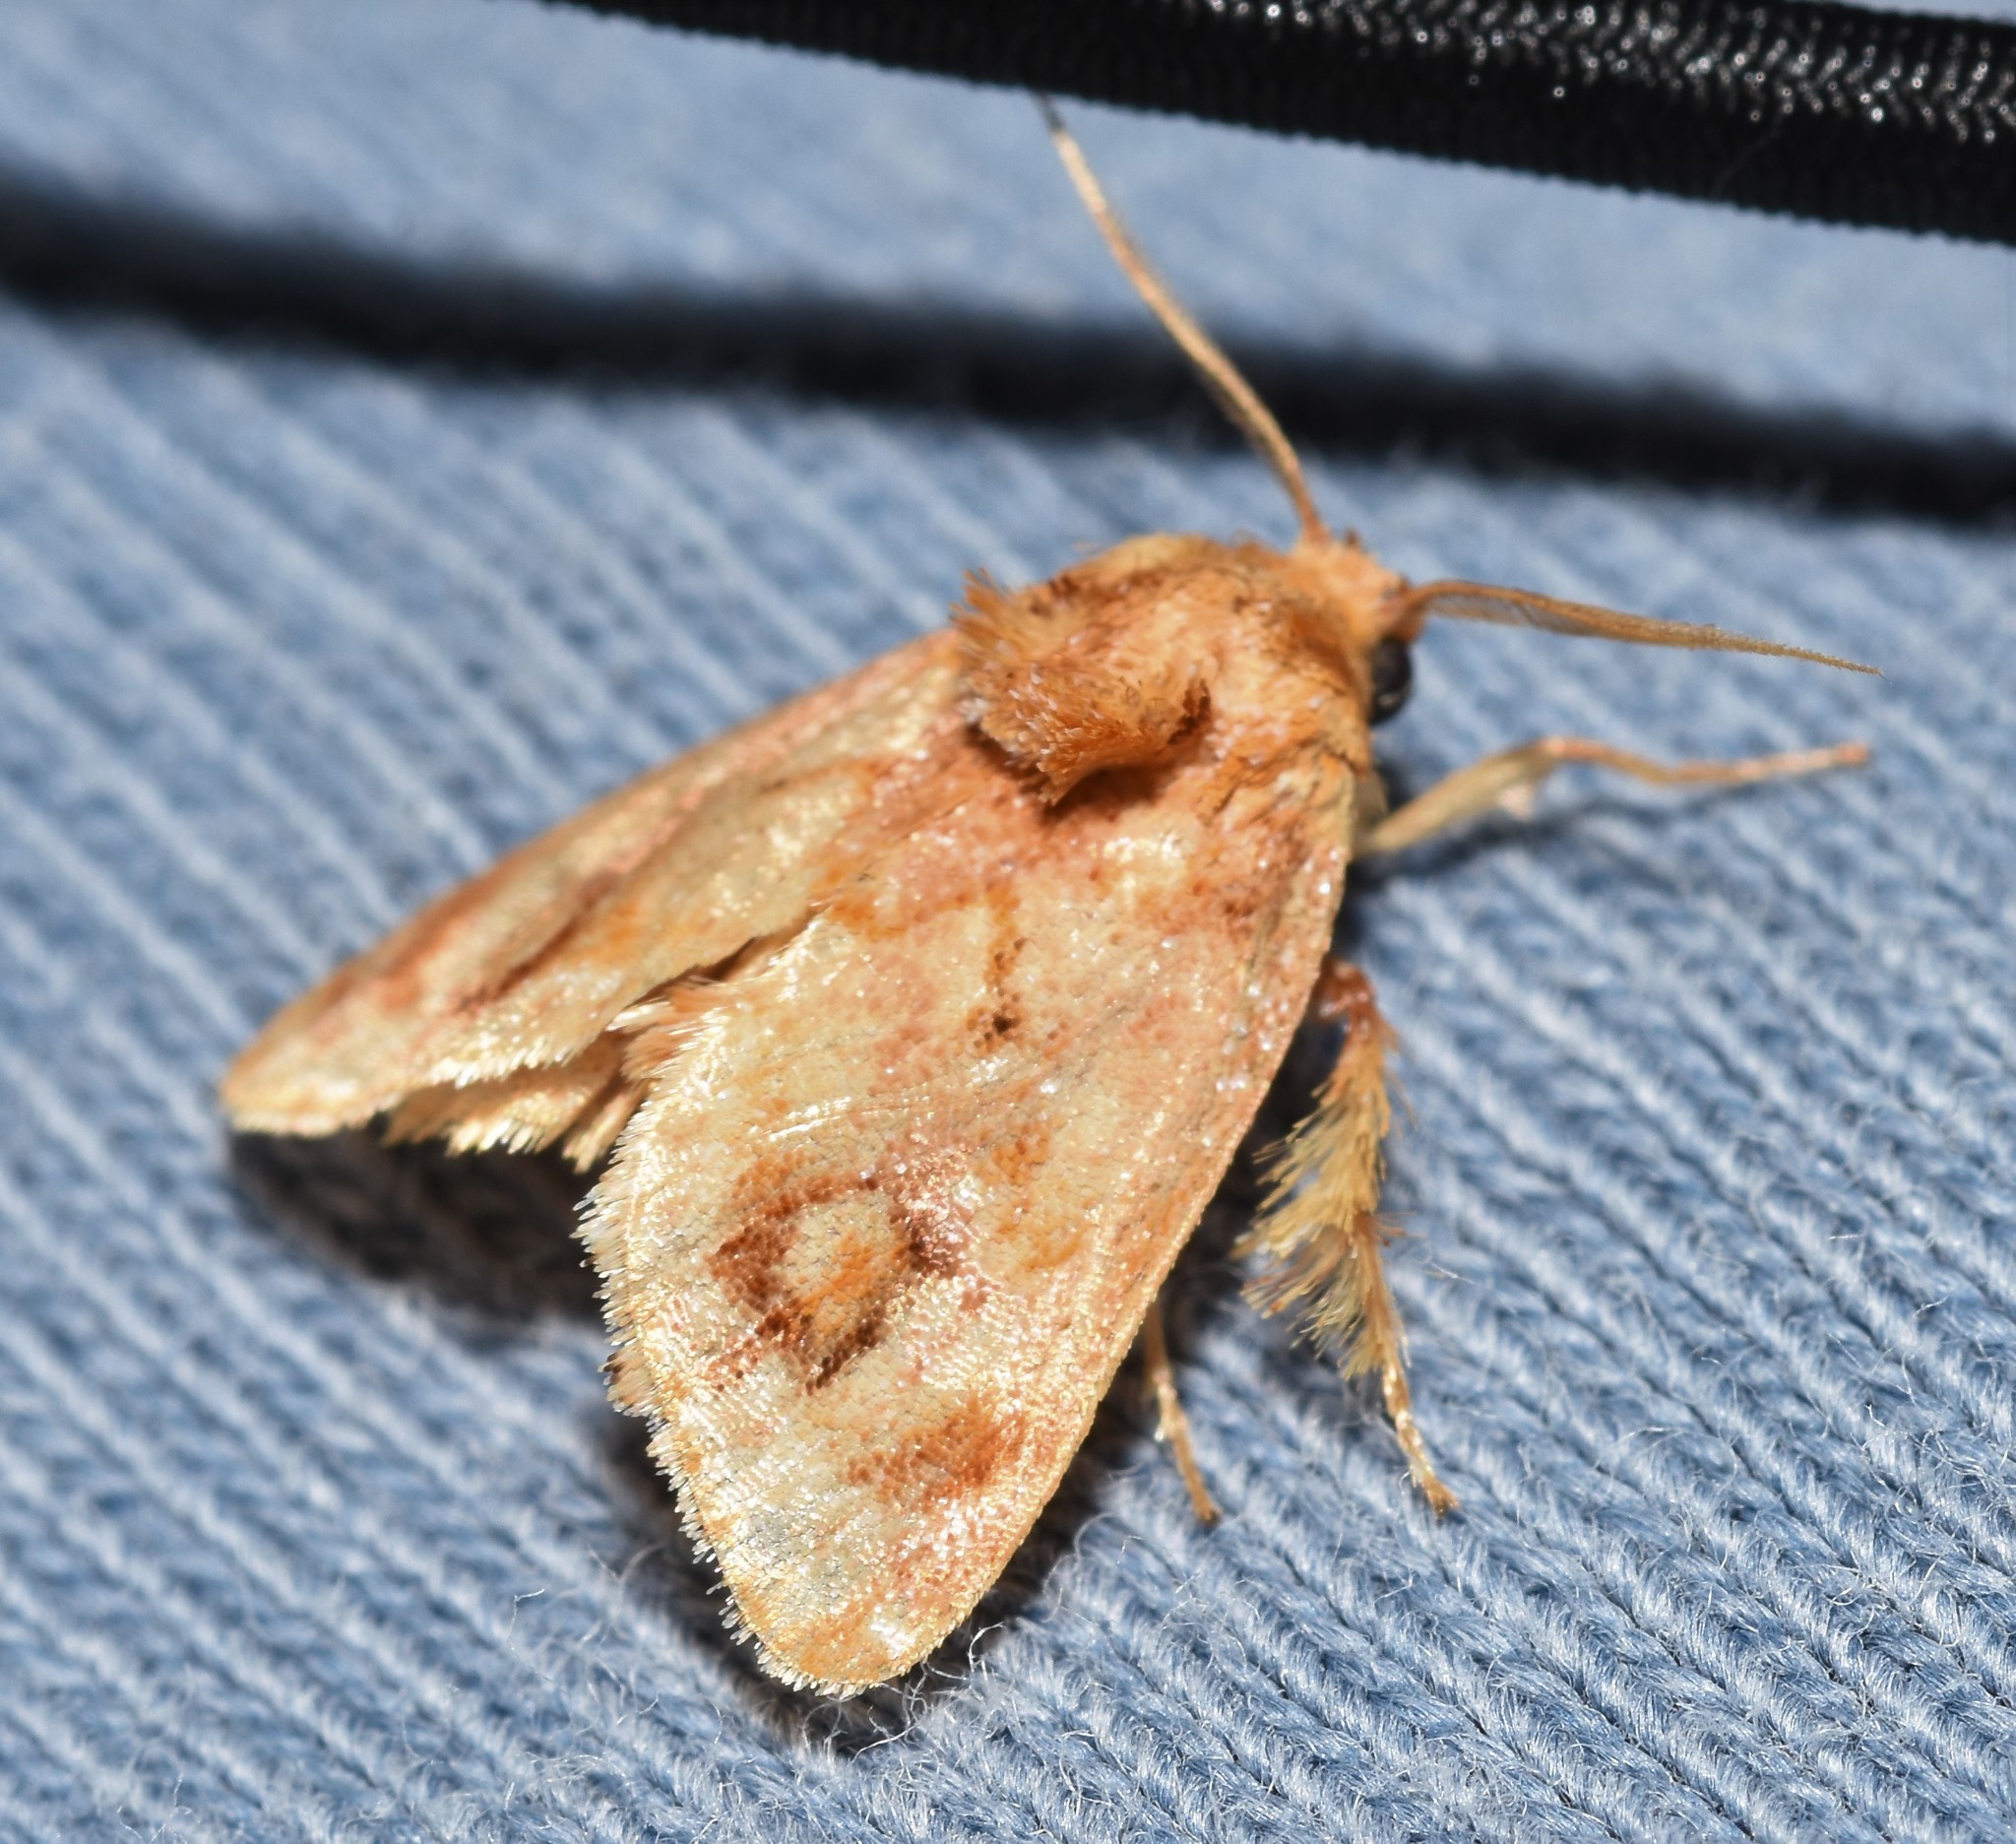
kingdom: Animalia
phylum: Arthropoda
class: Insecta
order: Lepidoptera
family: Limacodidae
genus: Isochaetes
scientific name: Isochaetes beutenmuelleri
